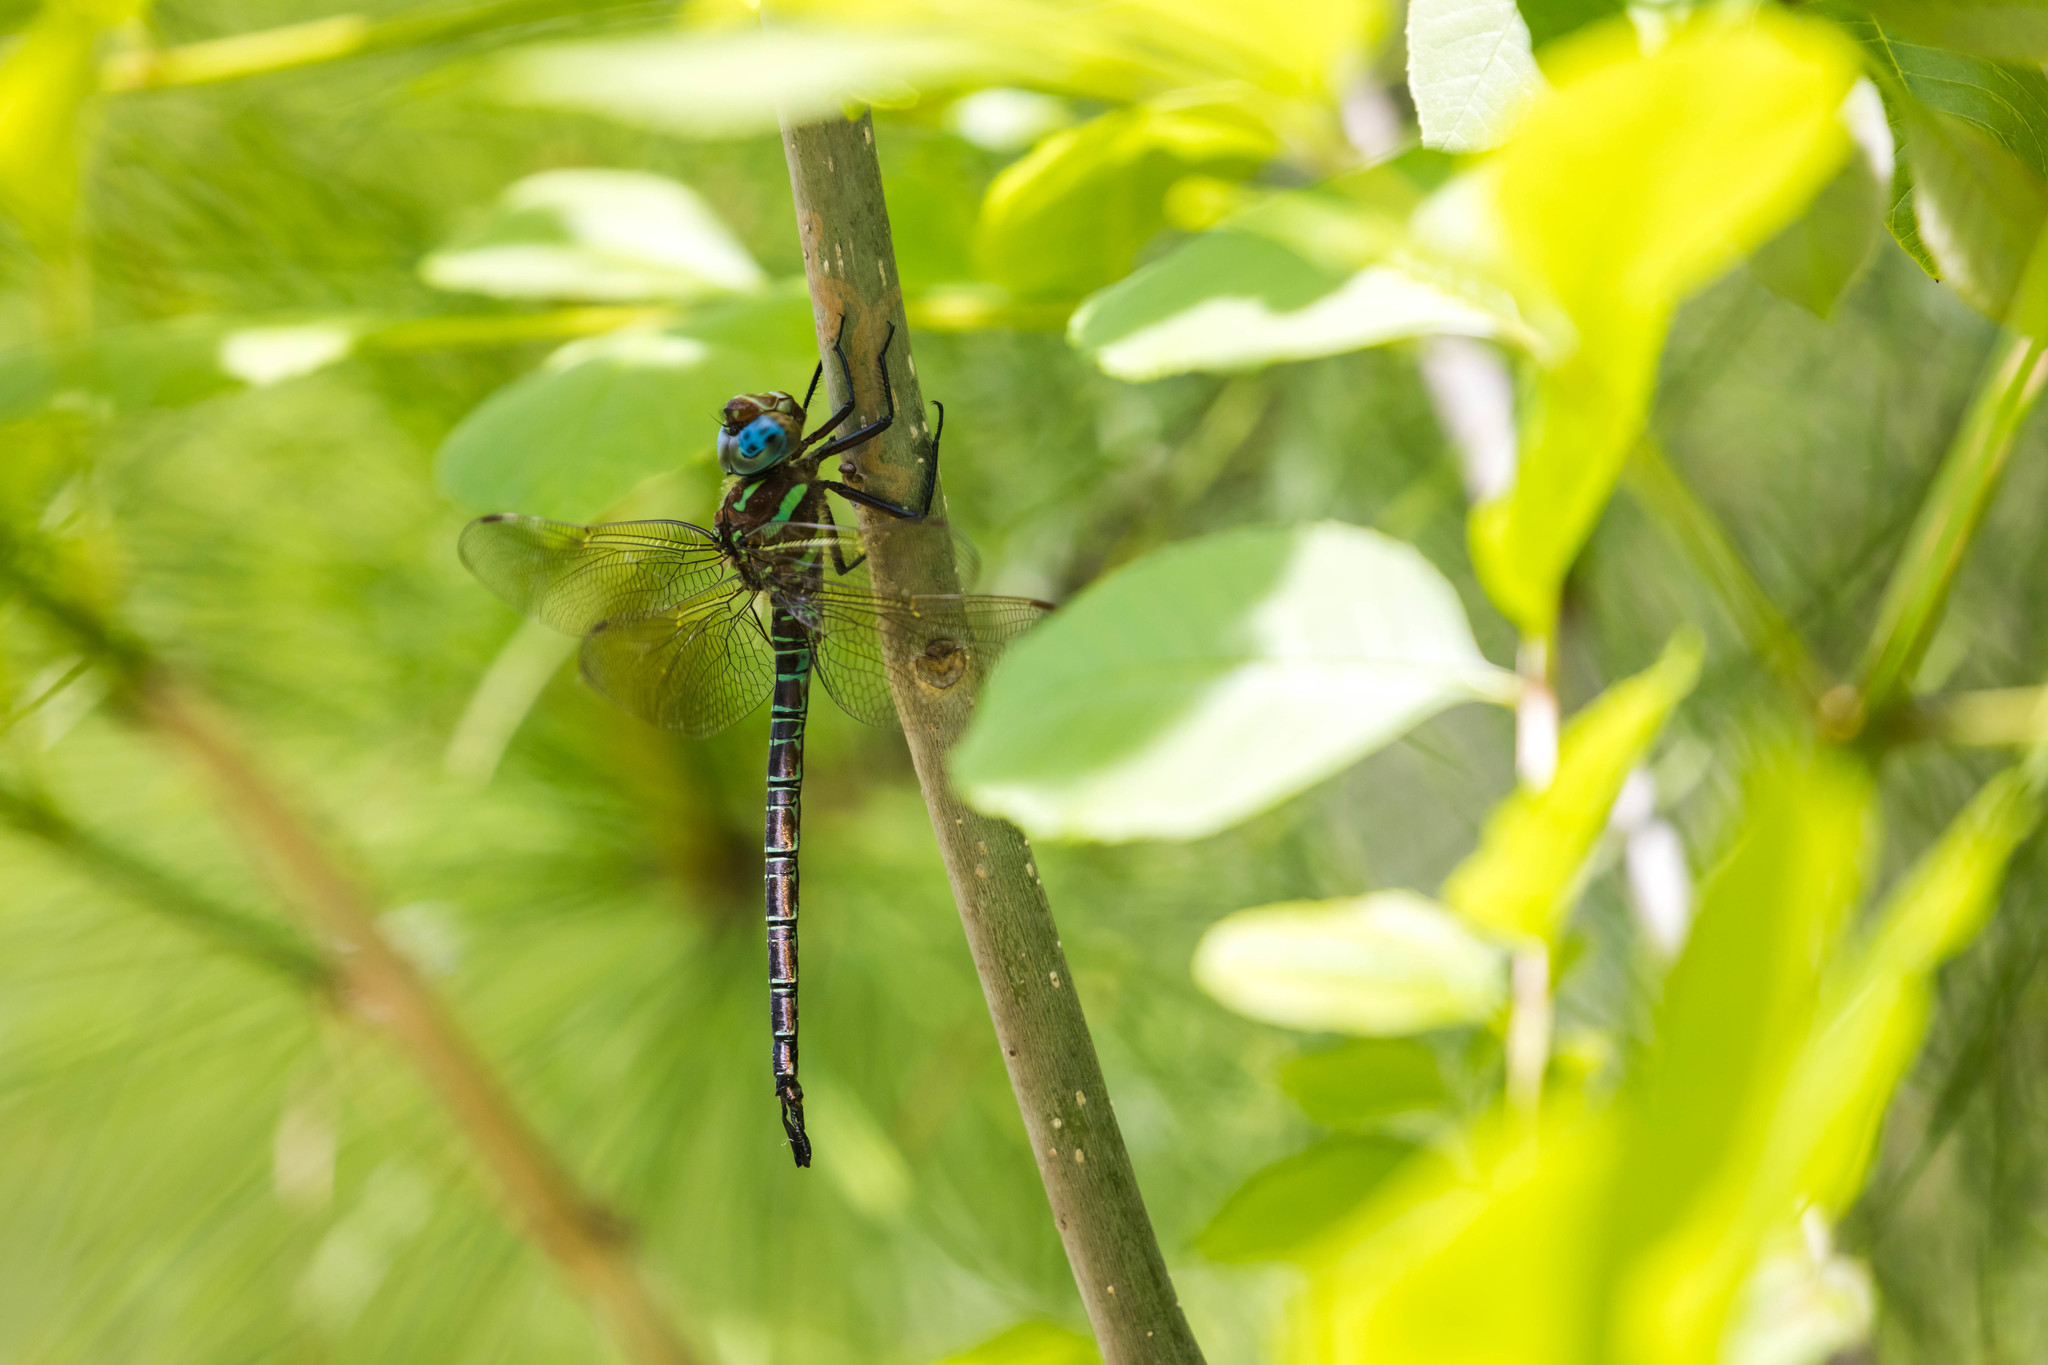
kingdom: Animalia
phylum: Arthropoda
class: Insecta
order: Odonata
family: Aeshnidae
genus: Epiaeschna
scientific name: Epiaeschna heros
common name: Swamp darner
